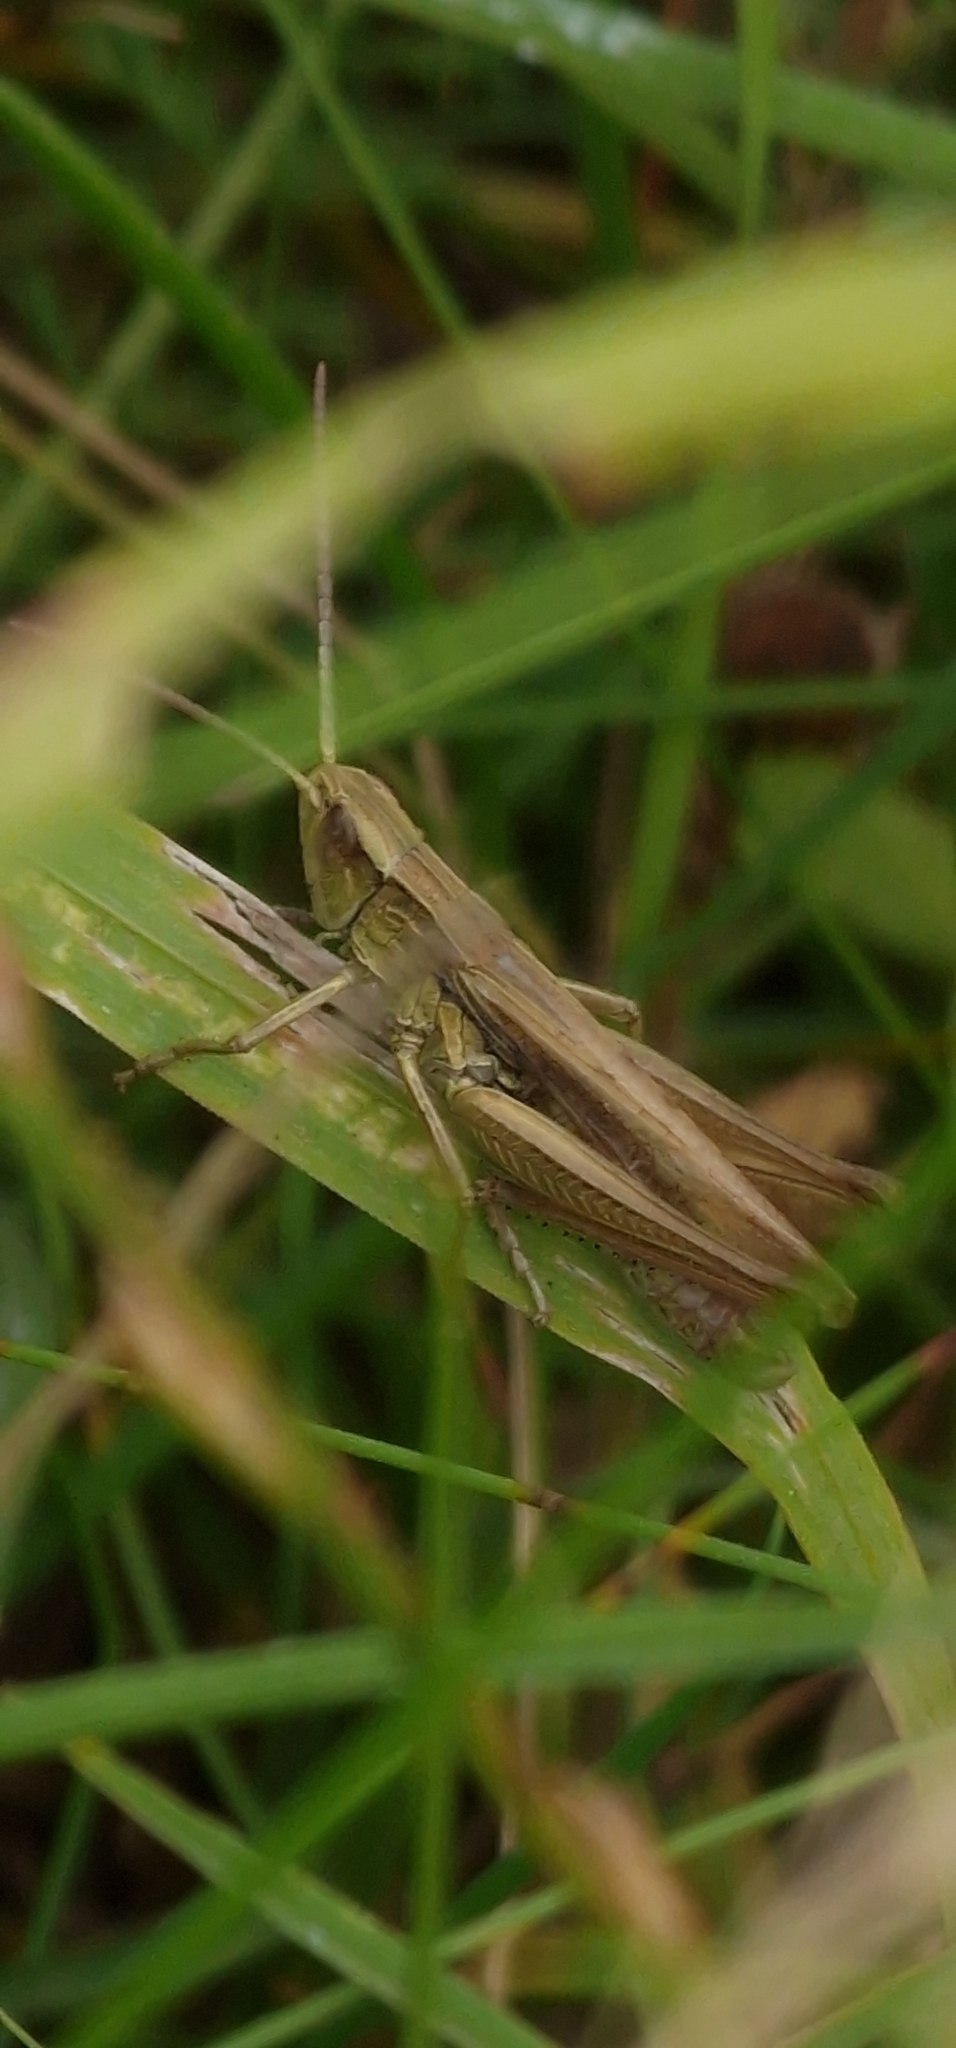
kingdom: Animalia
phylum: Arthropoda
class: Insecta
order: Orthoptera
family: Acrididae
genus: Chorthippus
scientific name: Chorthippus albomarginatus
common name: Lesser marsh grasshopper
